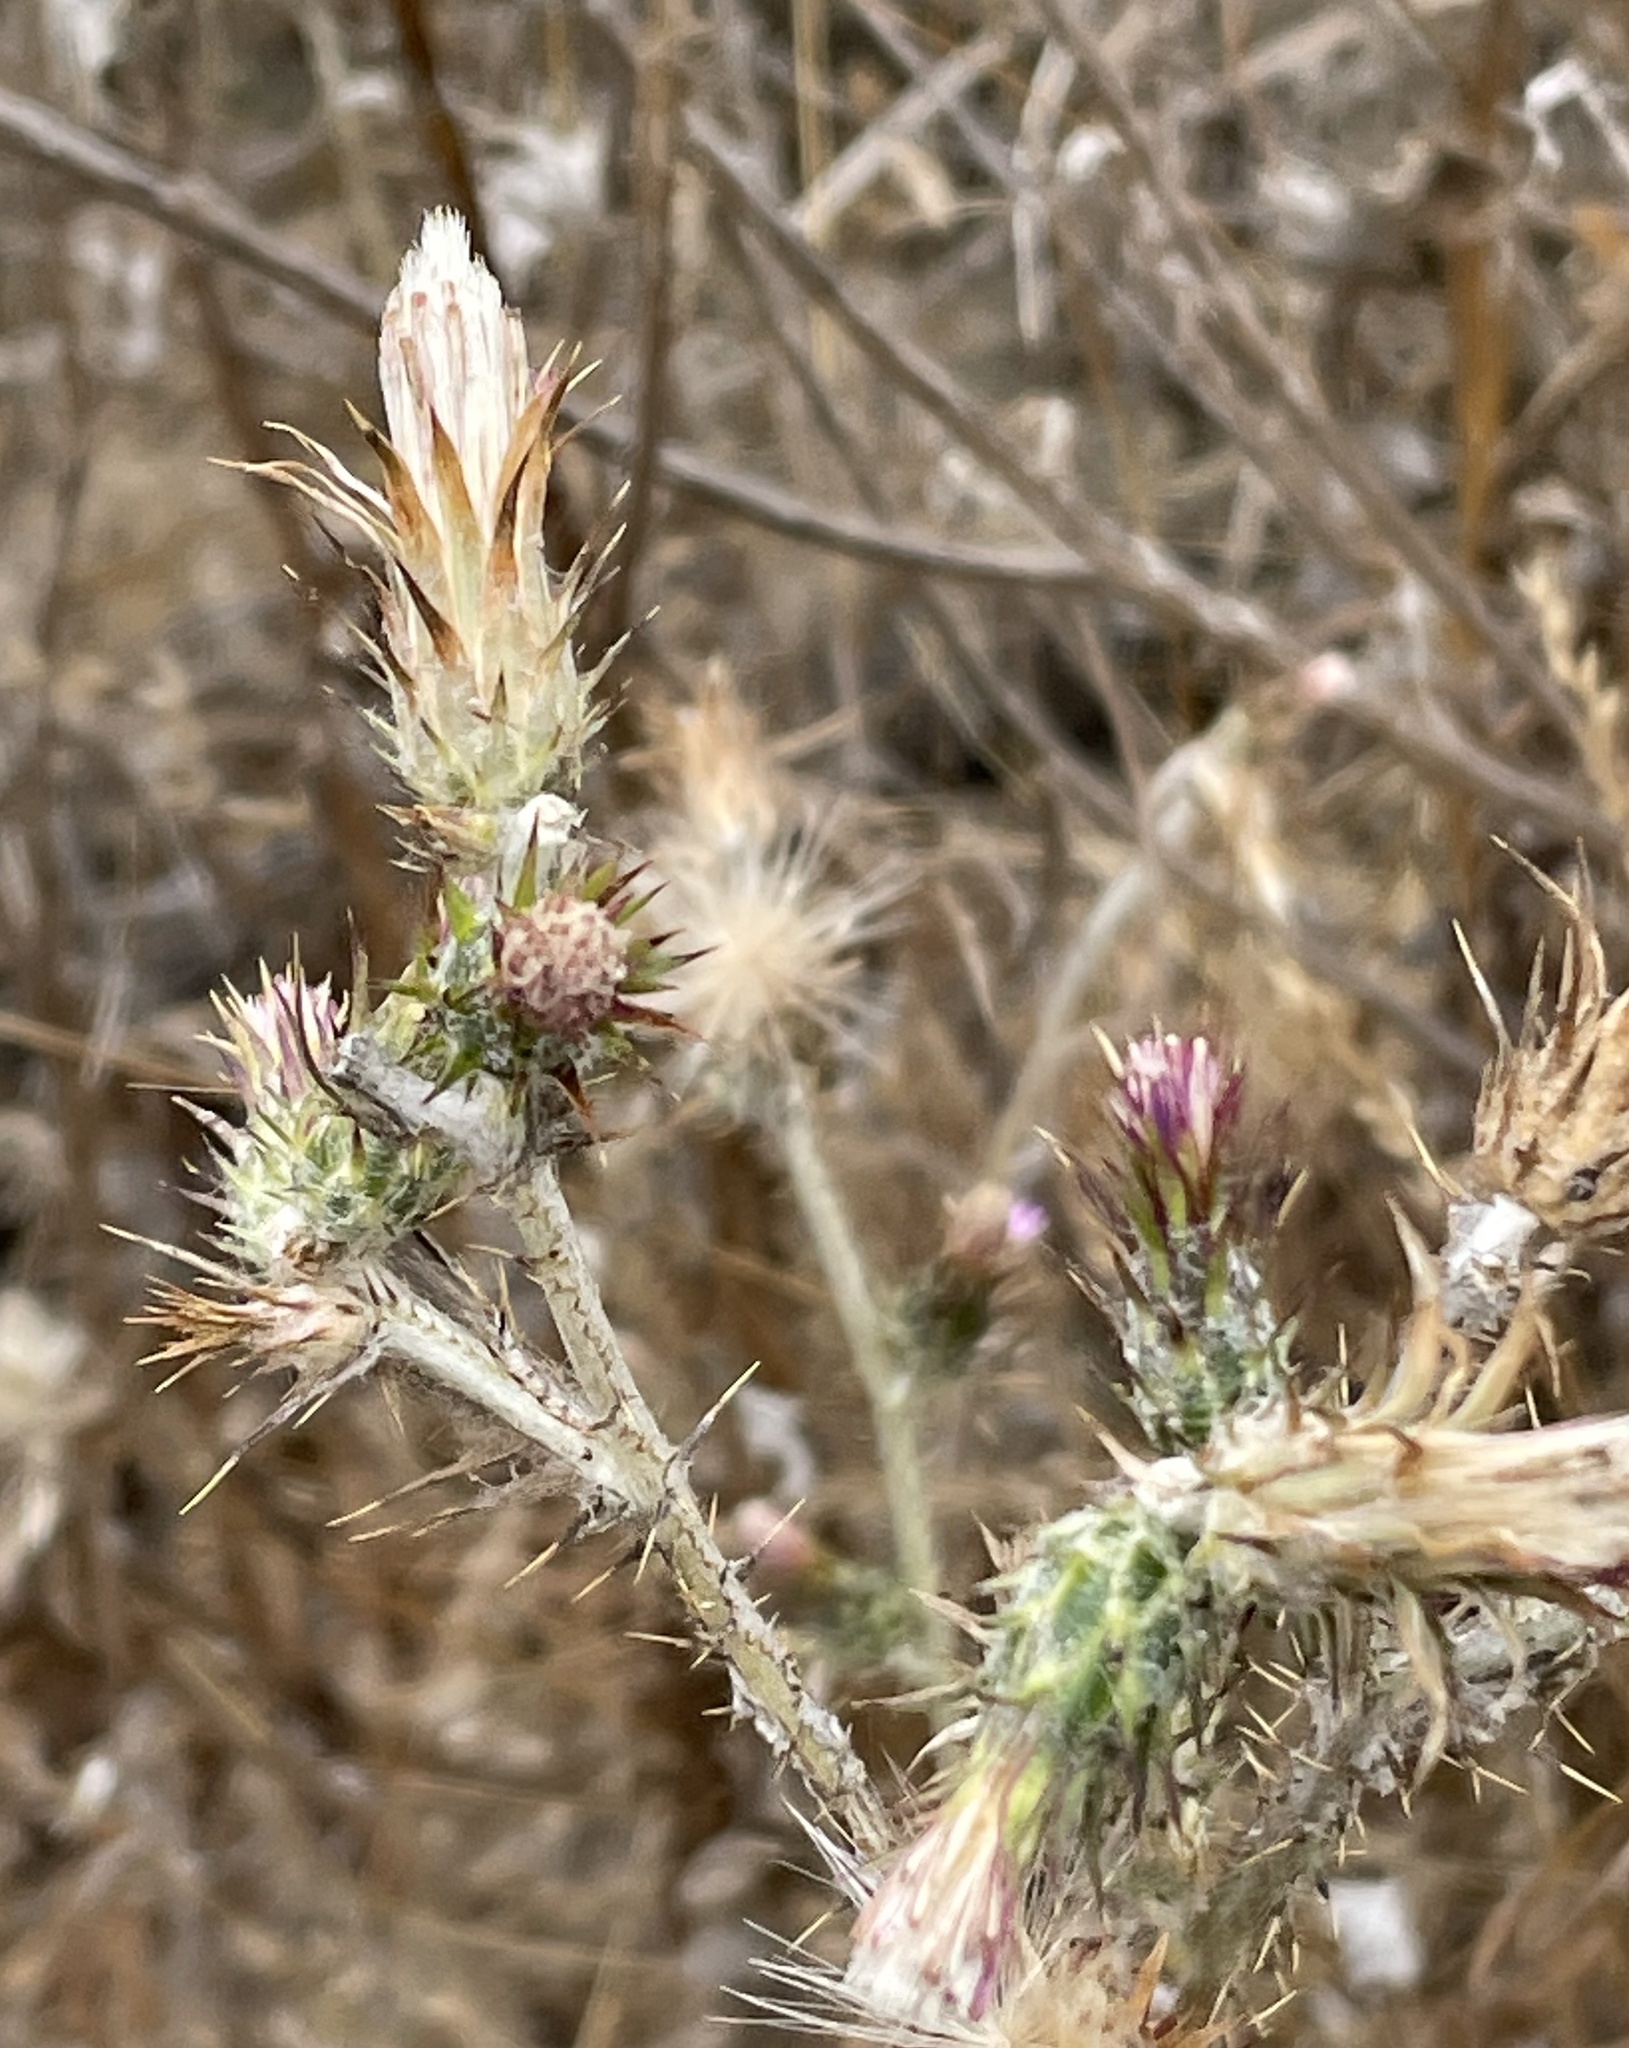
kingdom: Plantae
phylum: Tracheophyta
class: Magnoliopsida
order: Asterales
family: Asteraceae
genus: Carduus
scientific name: Carduus pycnocephalus
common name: Plymouth thistle
